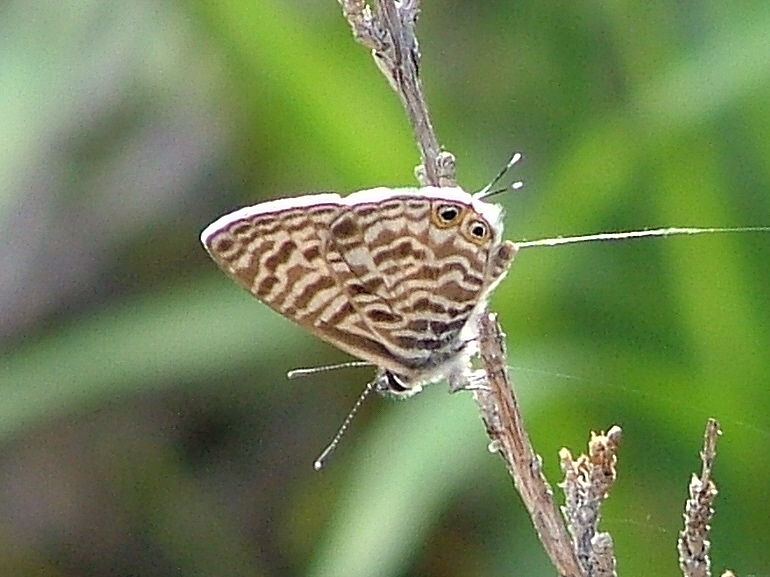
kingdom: Animalia
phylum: Arthropoda
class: Insecta
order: Lepidoptera
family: Lycaenidae
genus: Leptotes
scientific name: Leptotes
